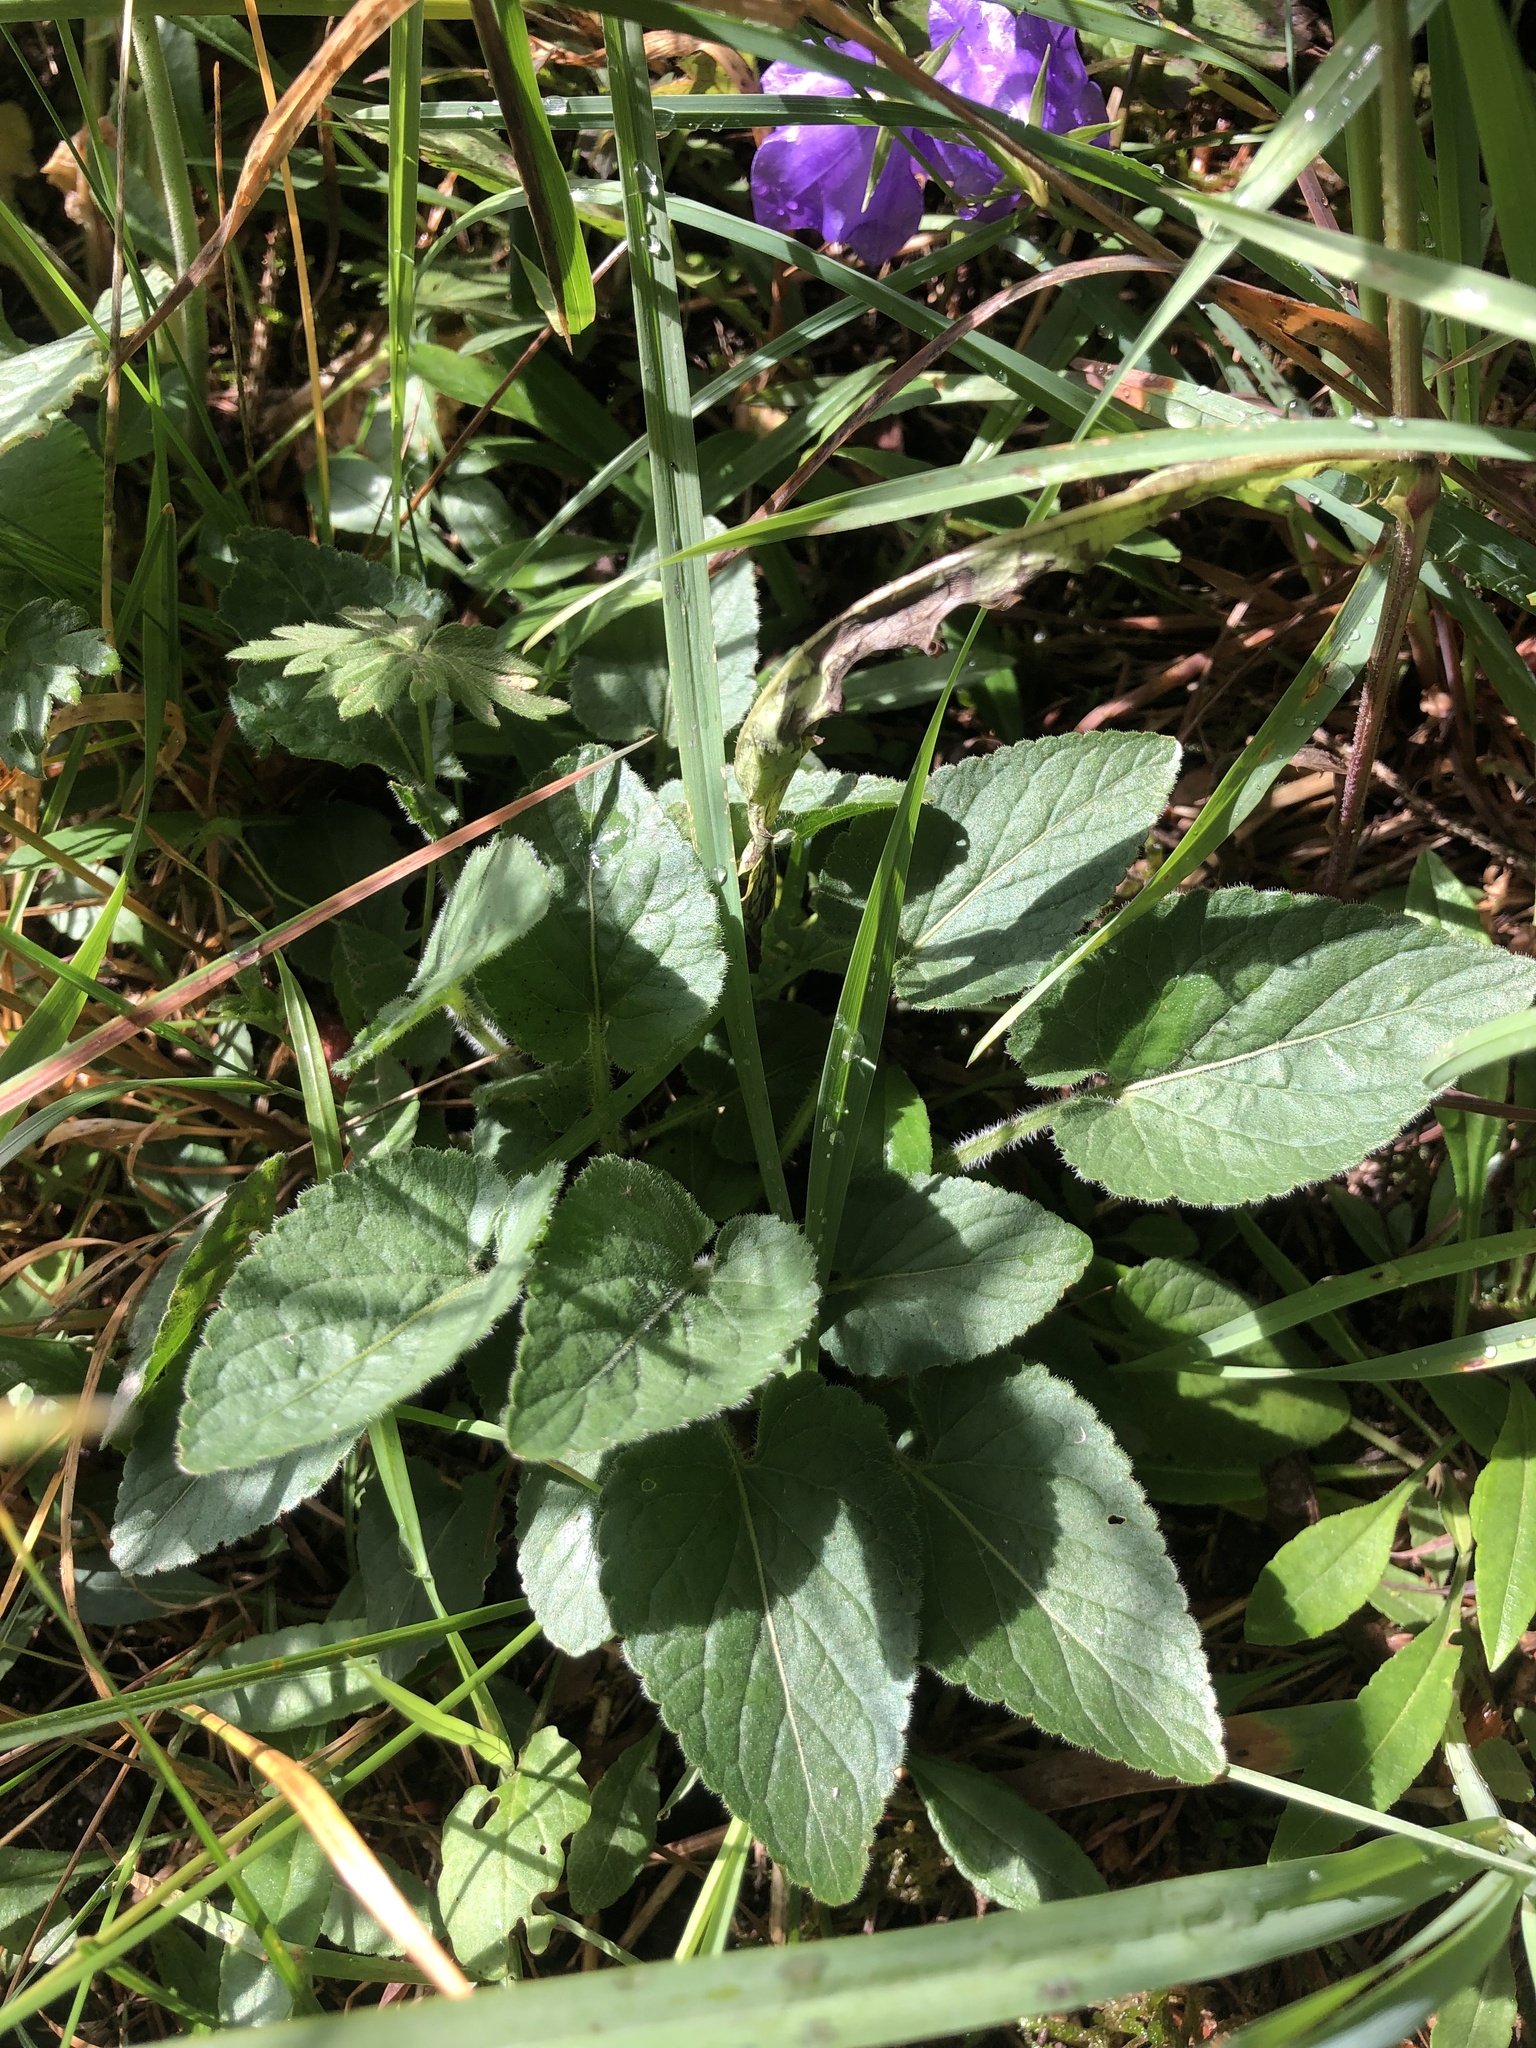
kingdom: Plantae
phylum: Tracheophyta
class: Magnoliopsida
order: Malpighiales
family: Violaceae
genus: Viola
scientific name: Viola hirta
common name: Hairy violet
